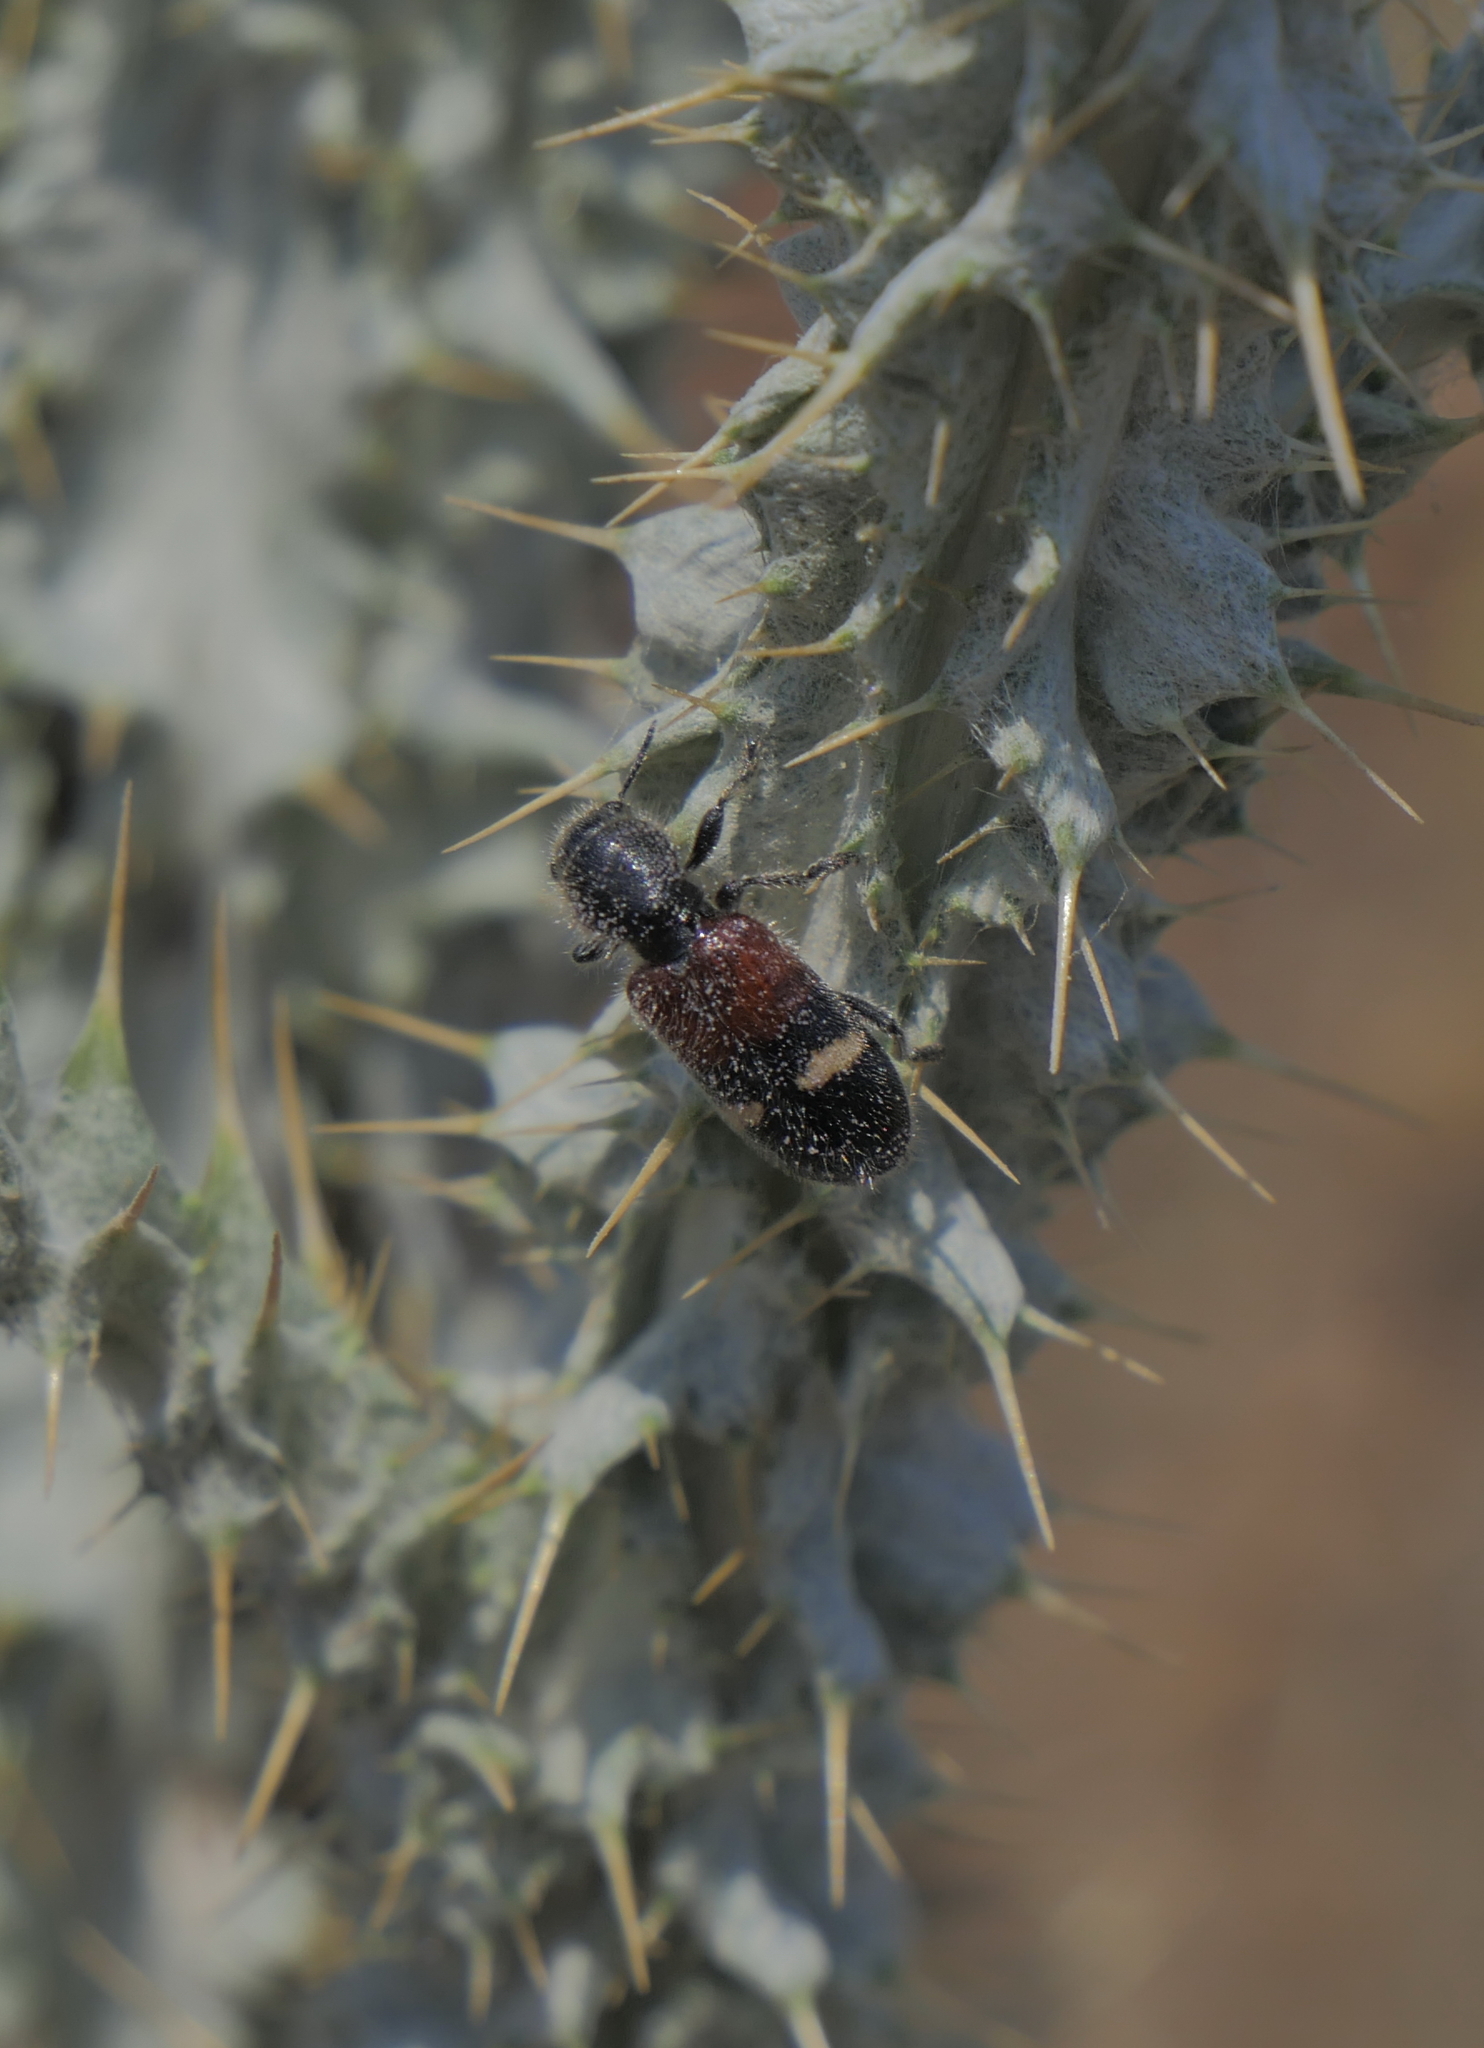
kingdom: Animalia
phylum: Arthropoda
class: Insecta
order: Coleoptera
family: Cleridae
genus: Tilloidea
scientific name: Tilloidea transversalis
